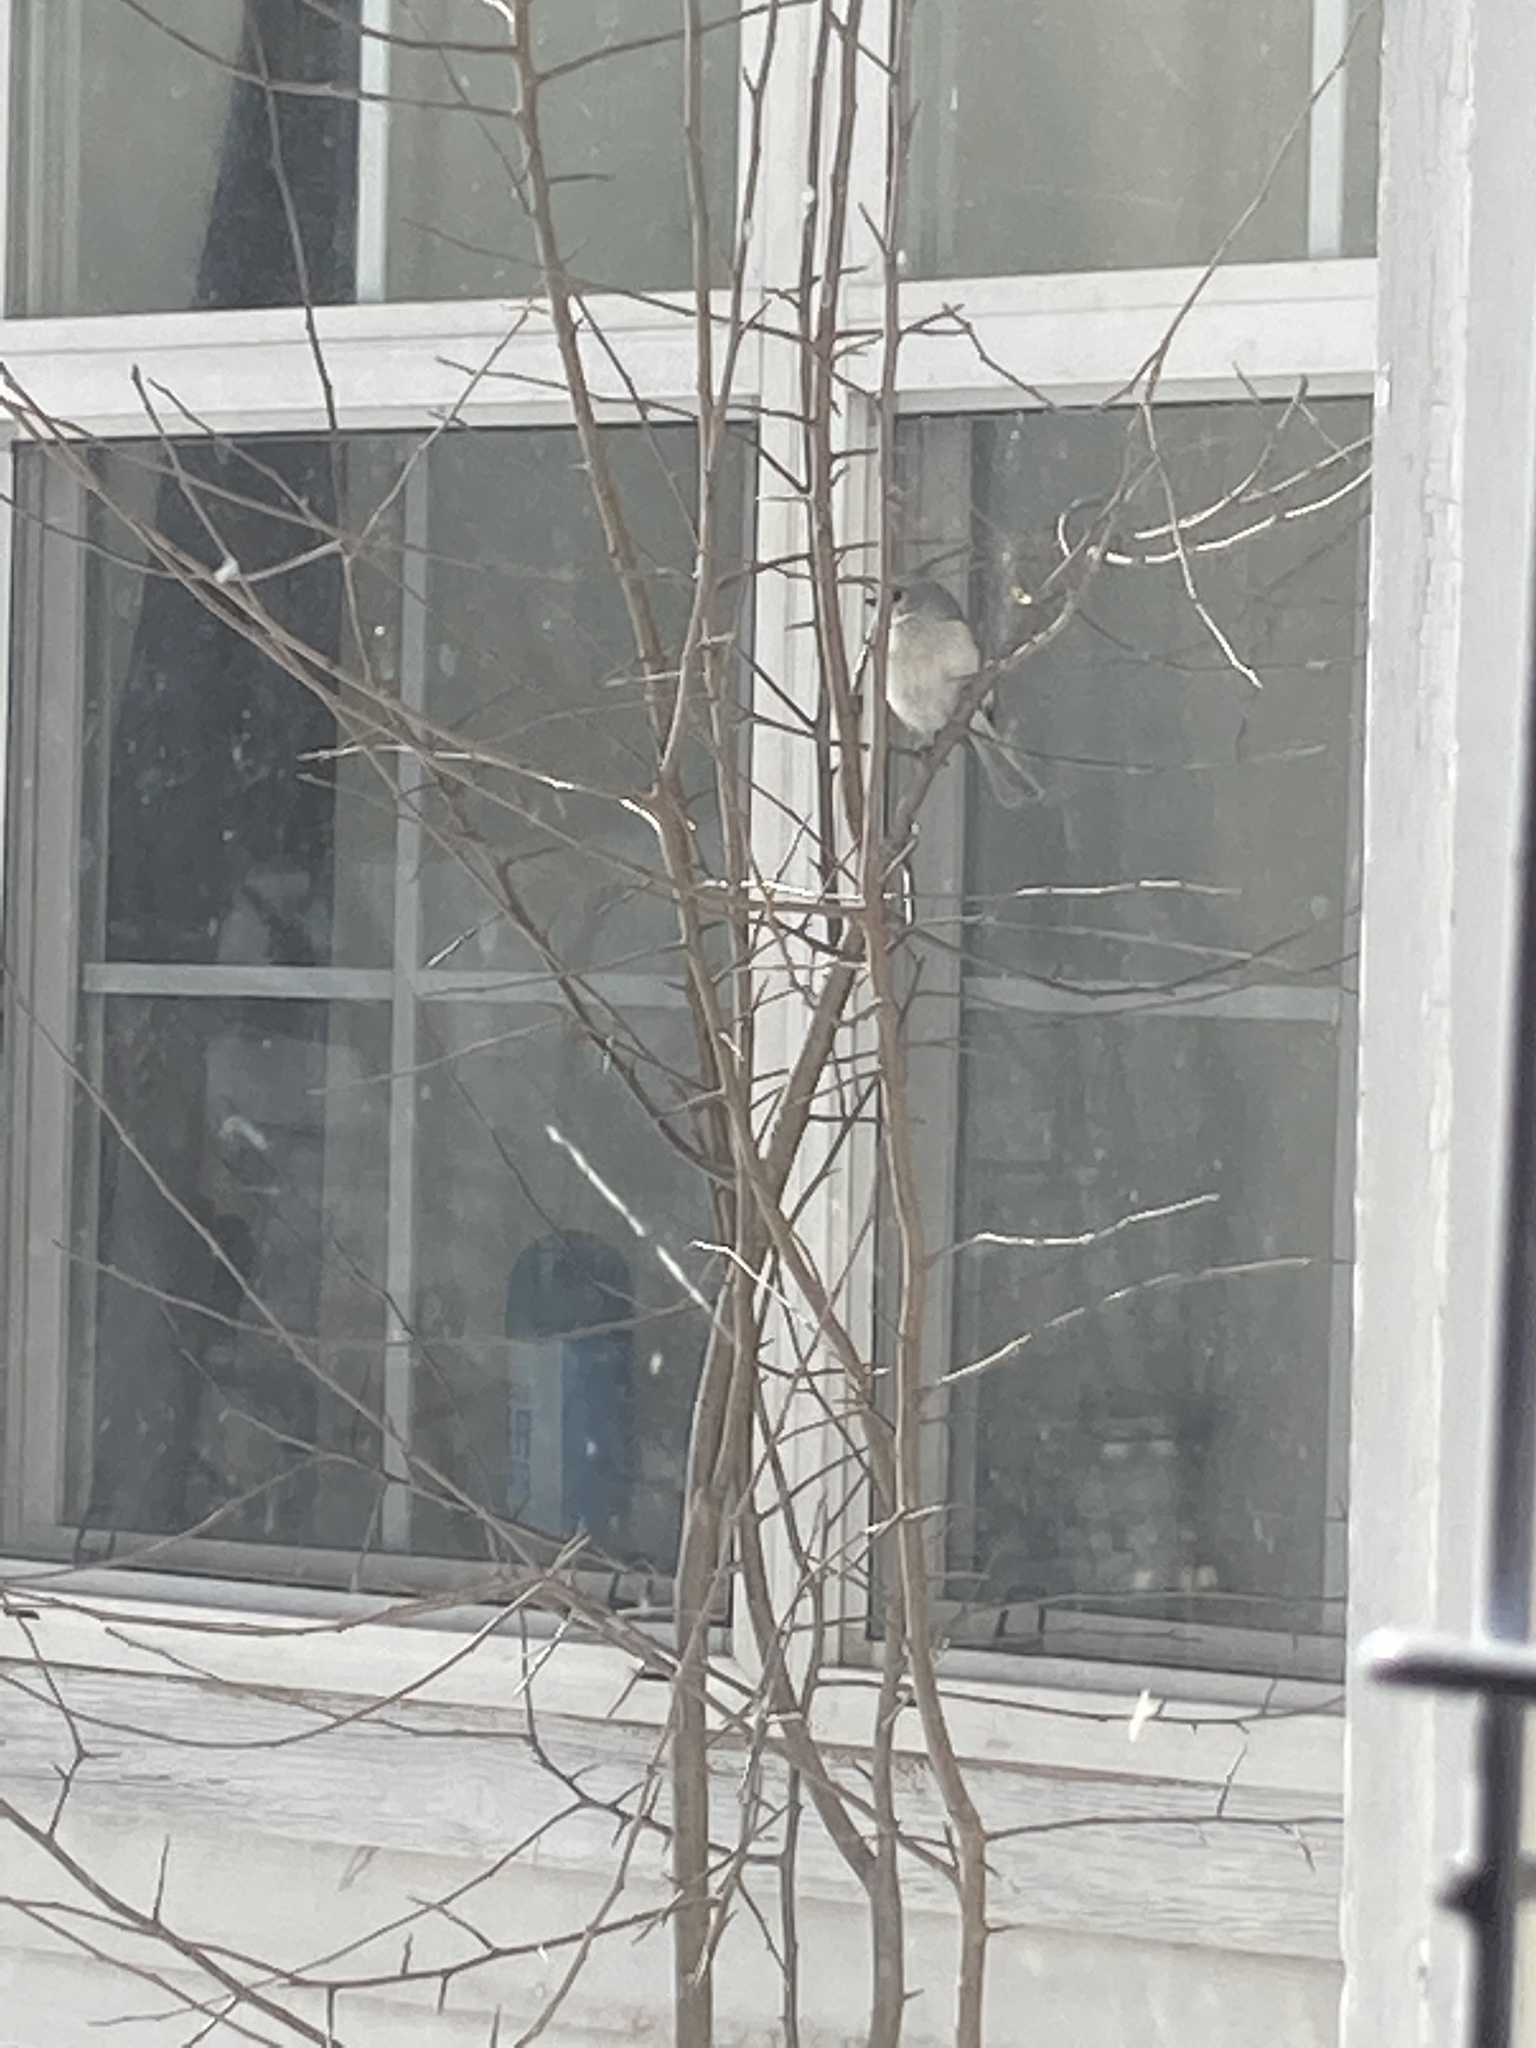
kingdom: Animalia
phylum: Chordata
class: Aves
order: Passeriformes
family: Paridae
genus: Baeolophus
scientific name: Baeolophus bicolor
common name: Tufted titmouse
